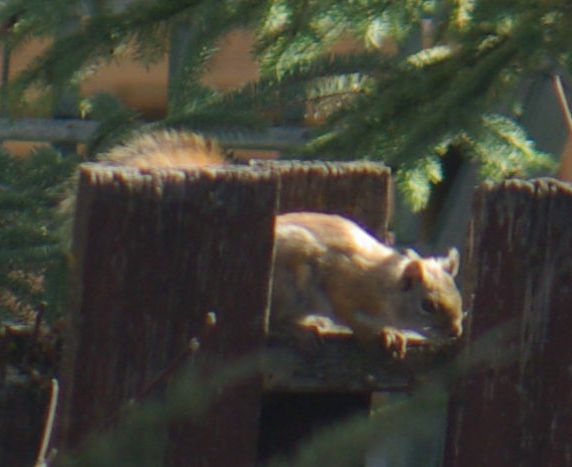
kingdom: Animalia
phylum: Chordata
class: Mammalia
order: Rodentia
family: Sciuridae
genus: Tamiasciurus
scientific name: Tamiasciurus hudsonicus
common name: Red squirrel
